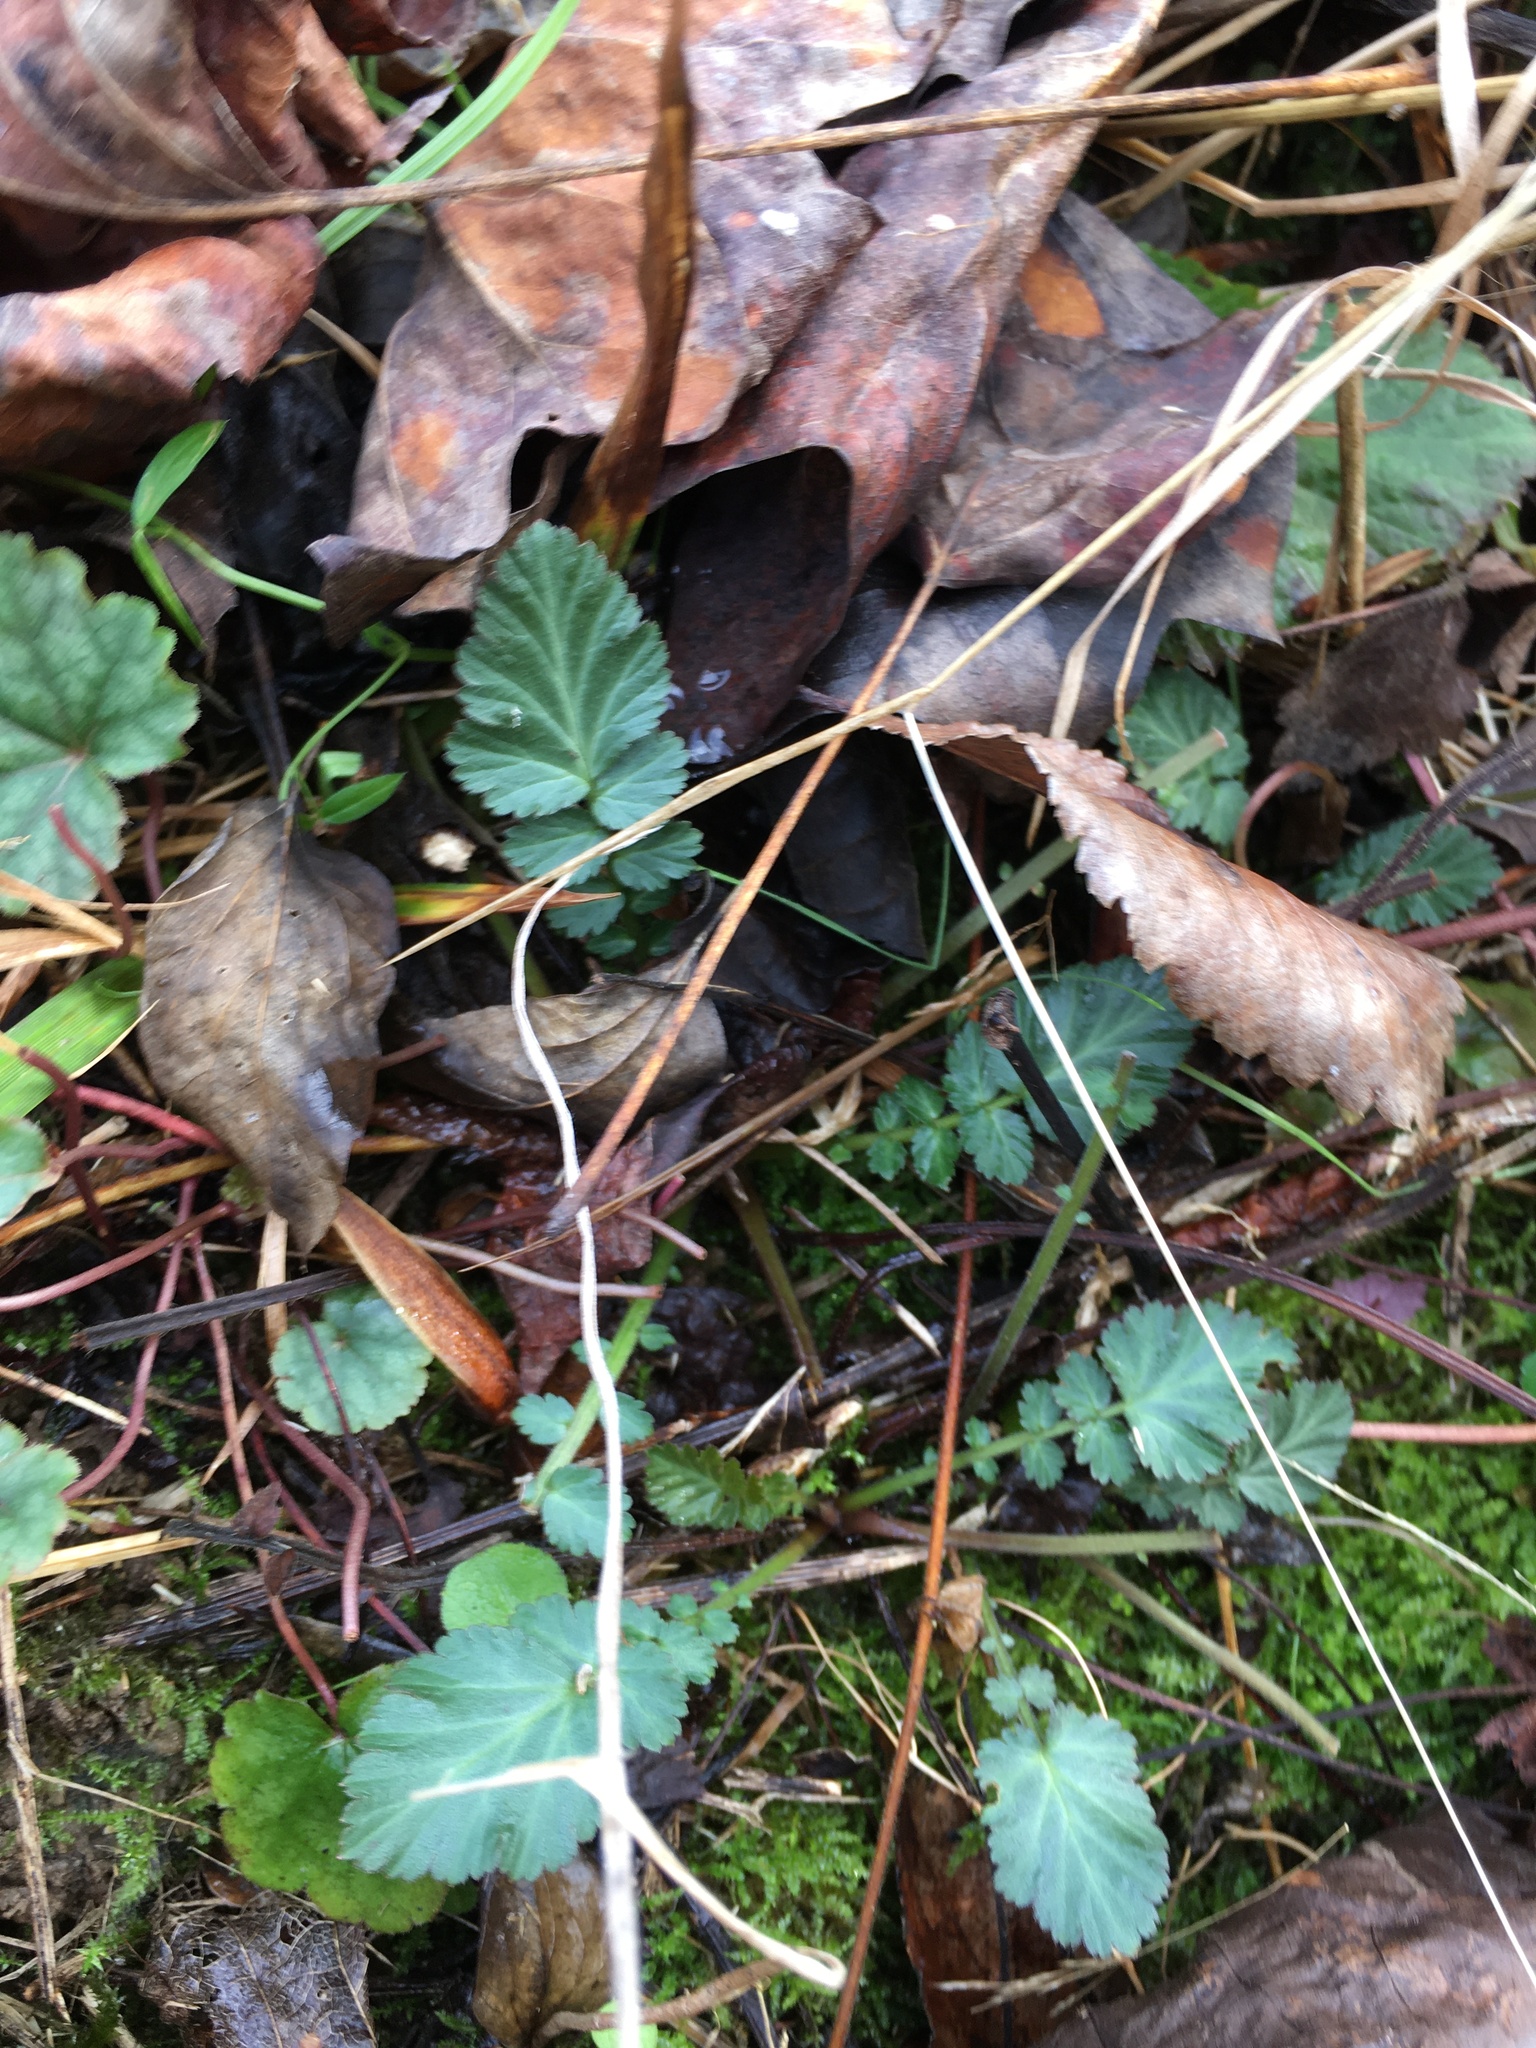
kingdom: Plantae
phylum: Tracheophyta
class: Magnoliopsida
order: Rosales
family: Rosaceae
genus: Geum
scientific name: Geum canadense
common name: White avens
